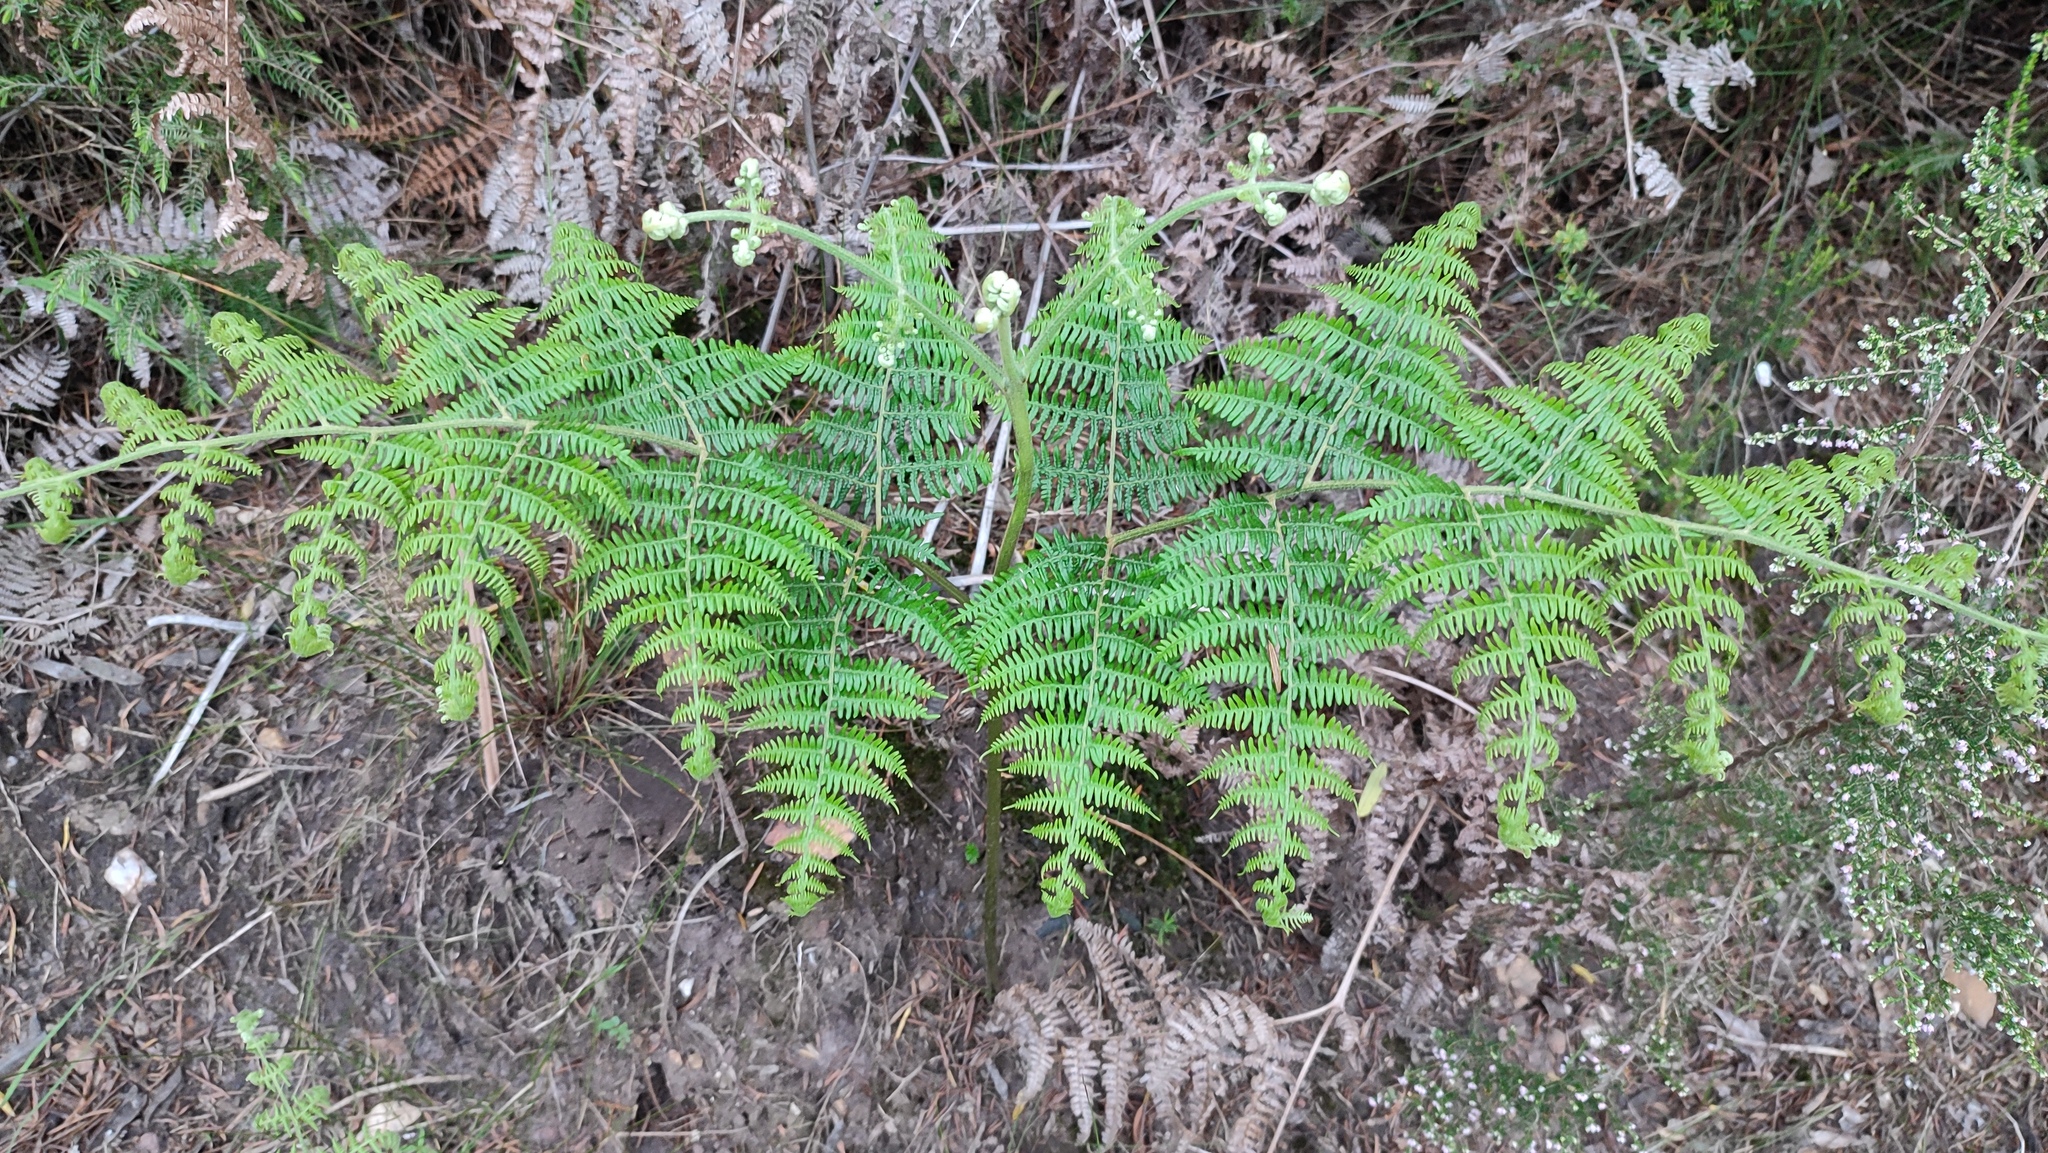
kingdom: Plantae
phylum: Tracheophyta
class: Polypodiopsida
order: Polypodiales
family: Dennstaedtiaceae
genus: Pteridium
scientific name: Pteridium aquilinum
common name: Bracken
